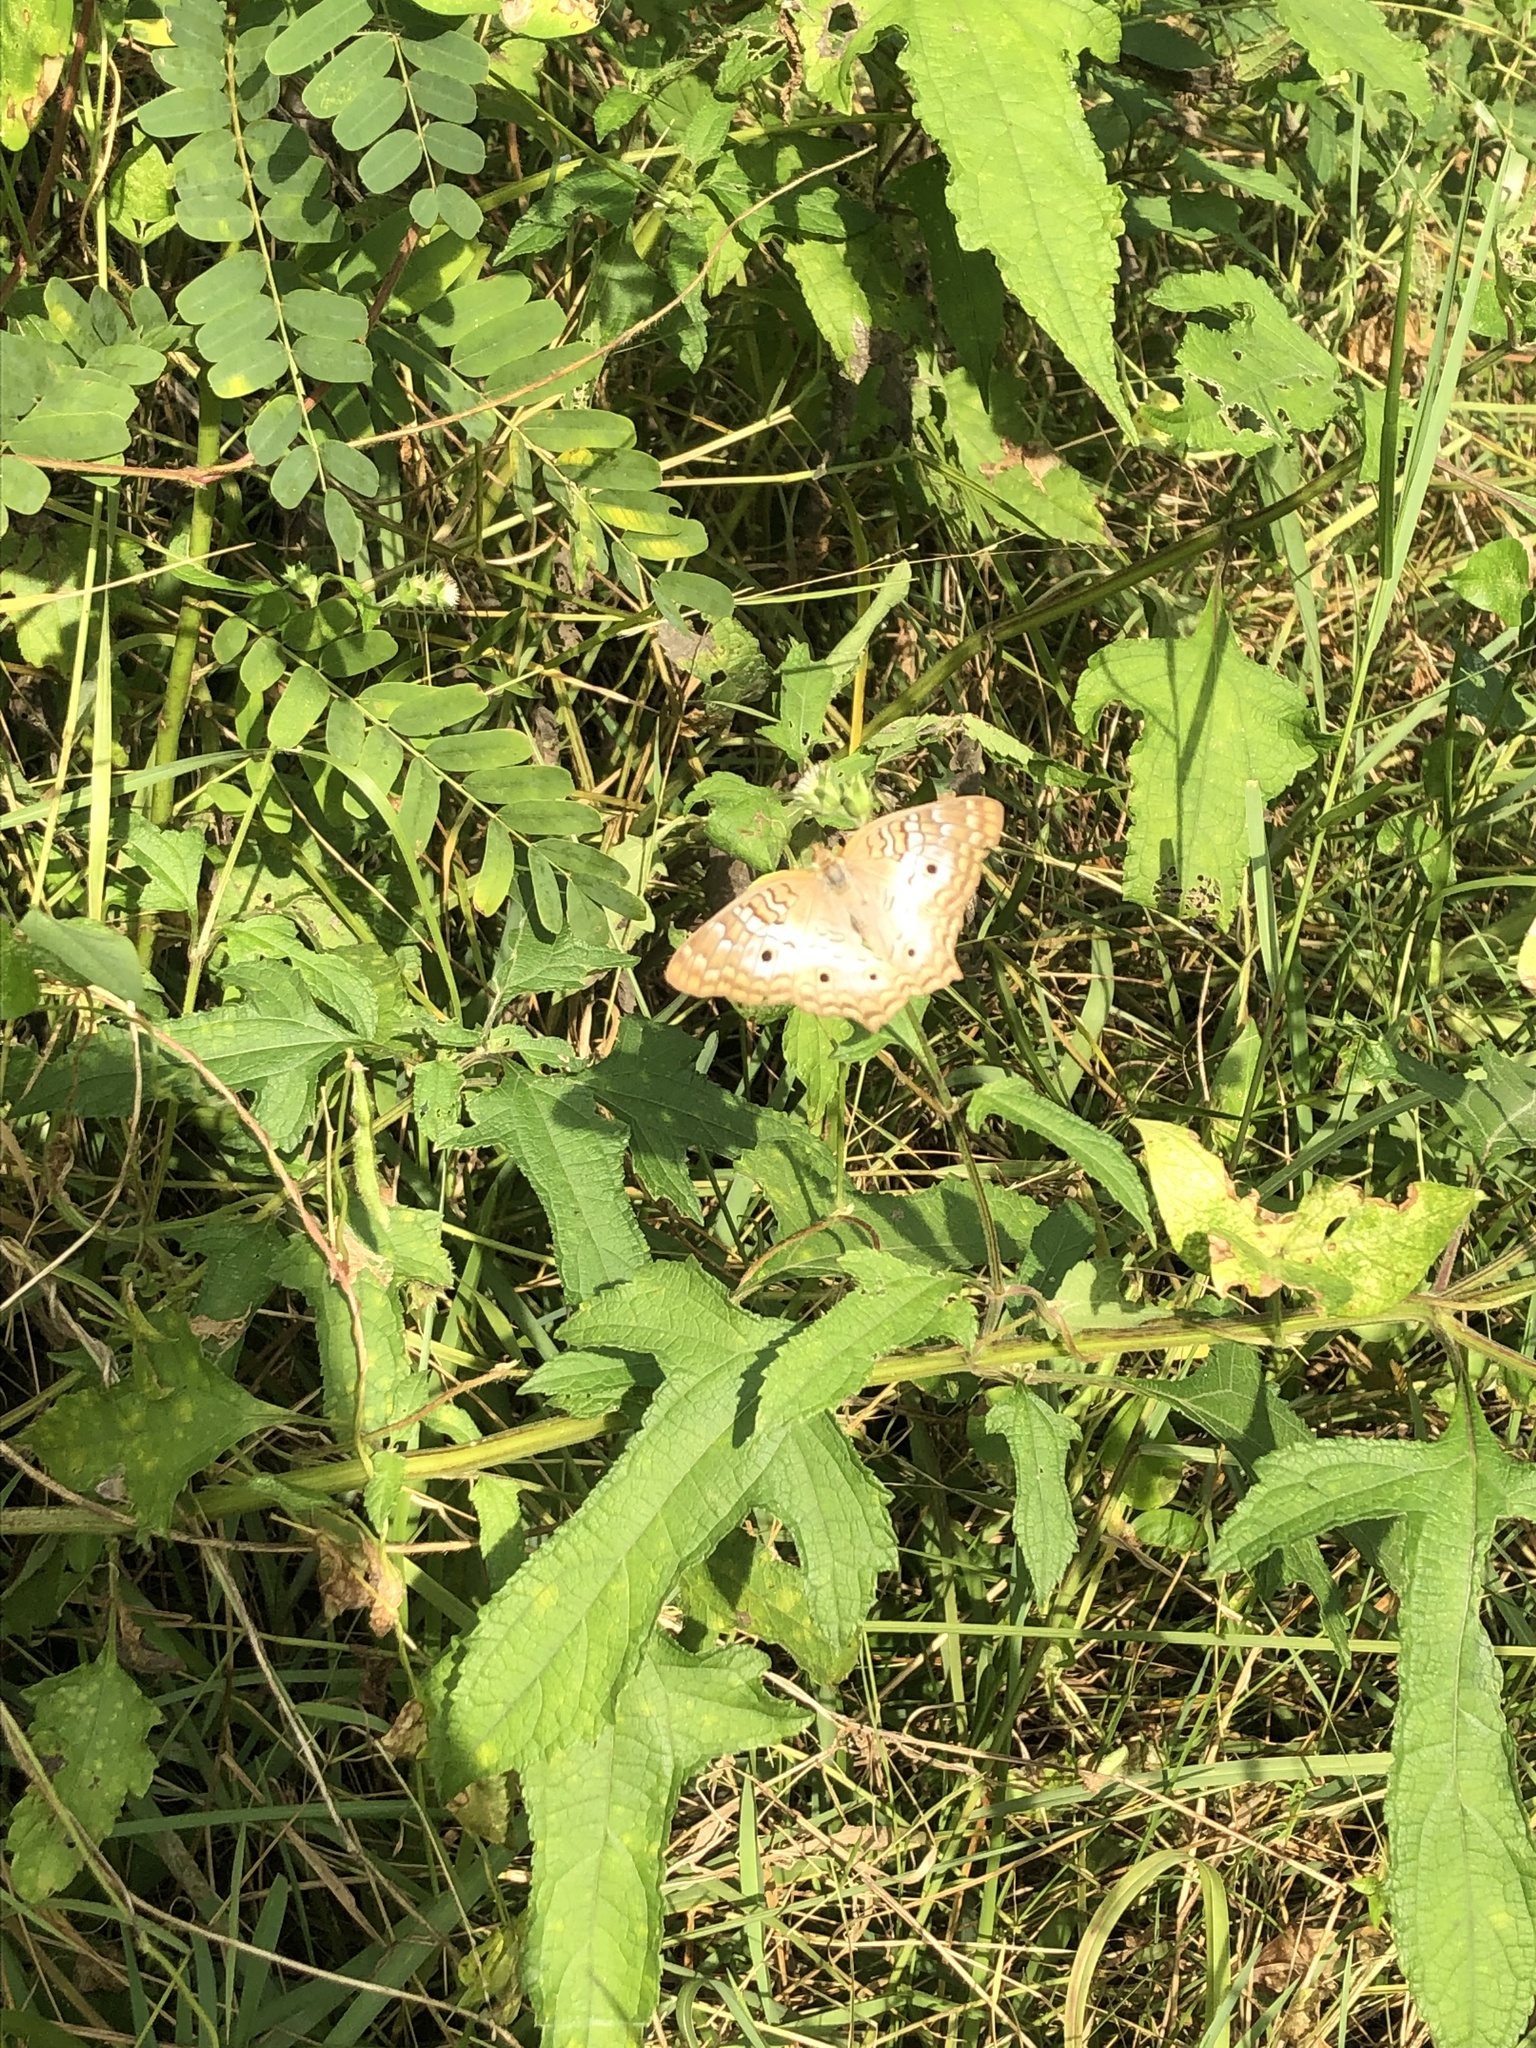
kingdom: Animalia
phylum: Arthropoda
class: Insecta
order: Lepidoptera
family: Nymphalidae
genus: Anartia
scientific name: Anartia jatrophae
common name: White peacock
